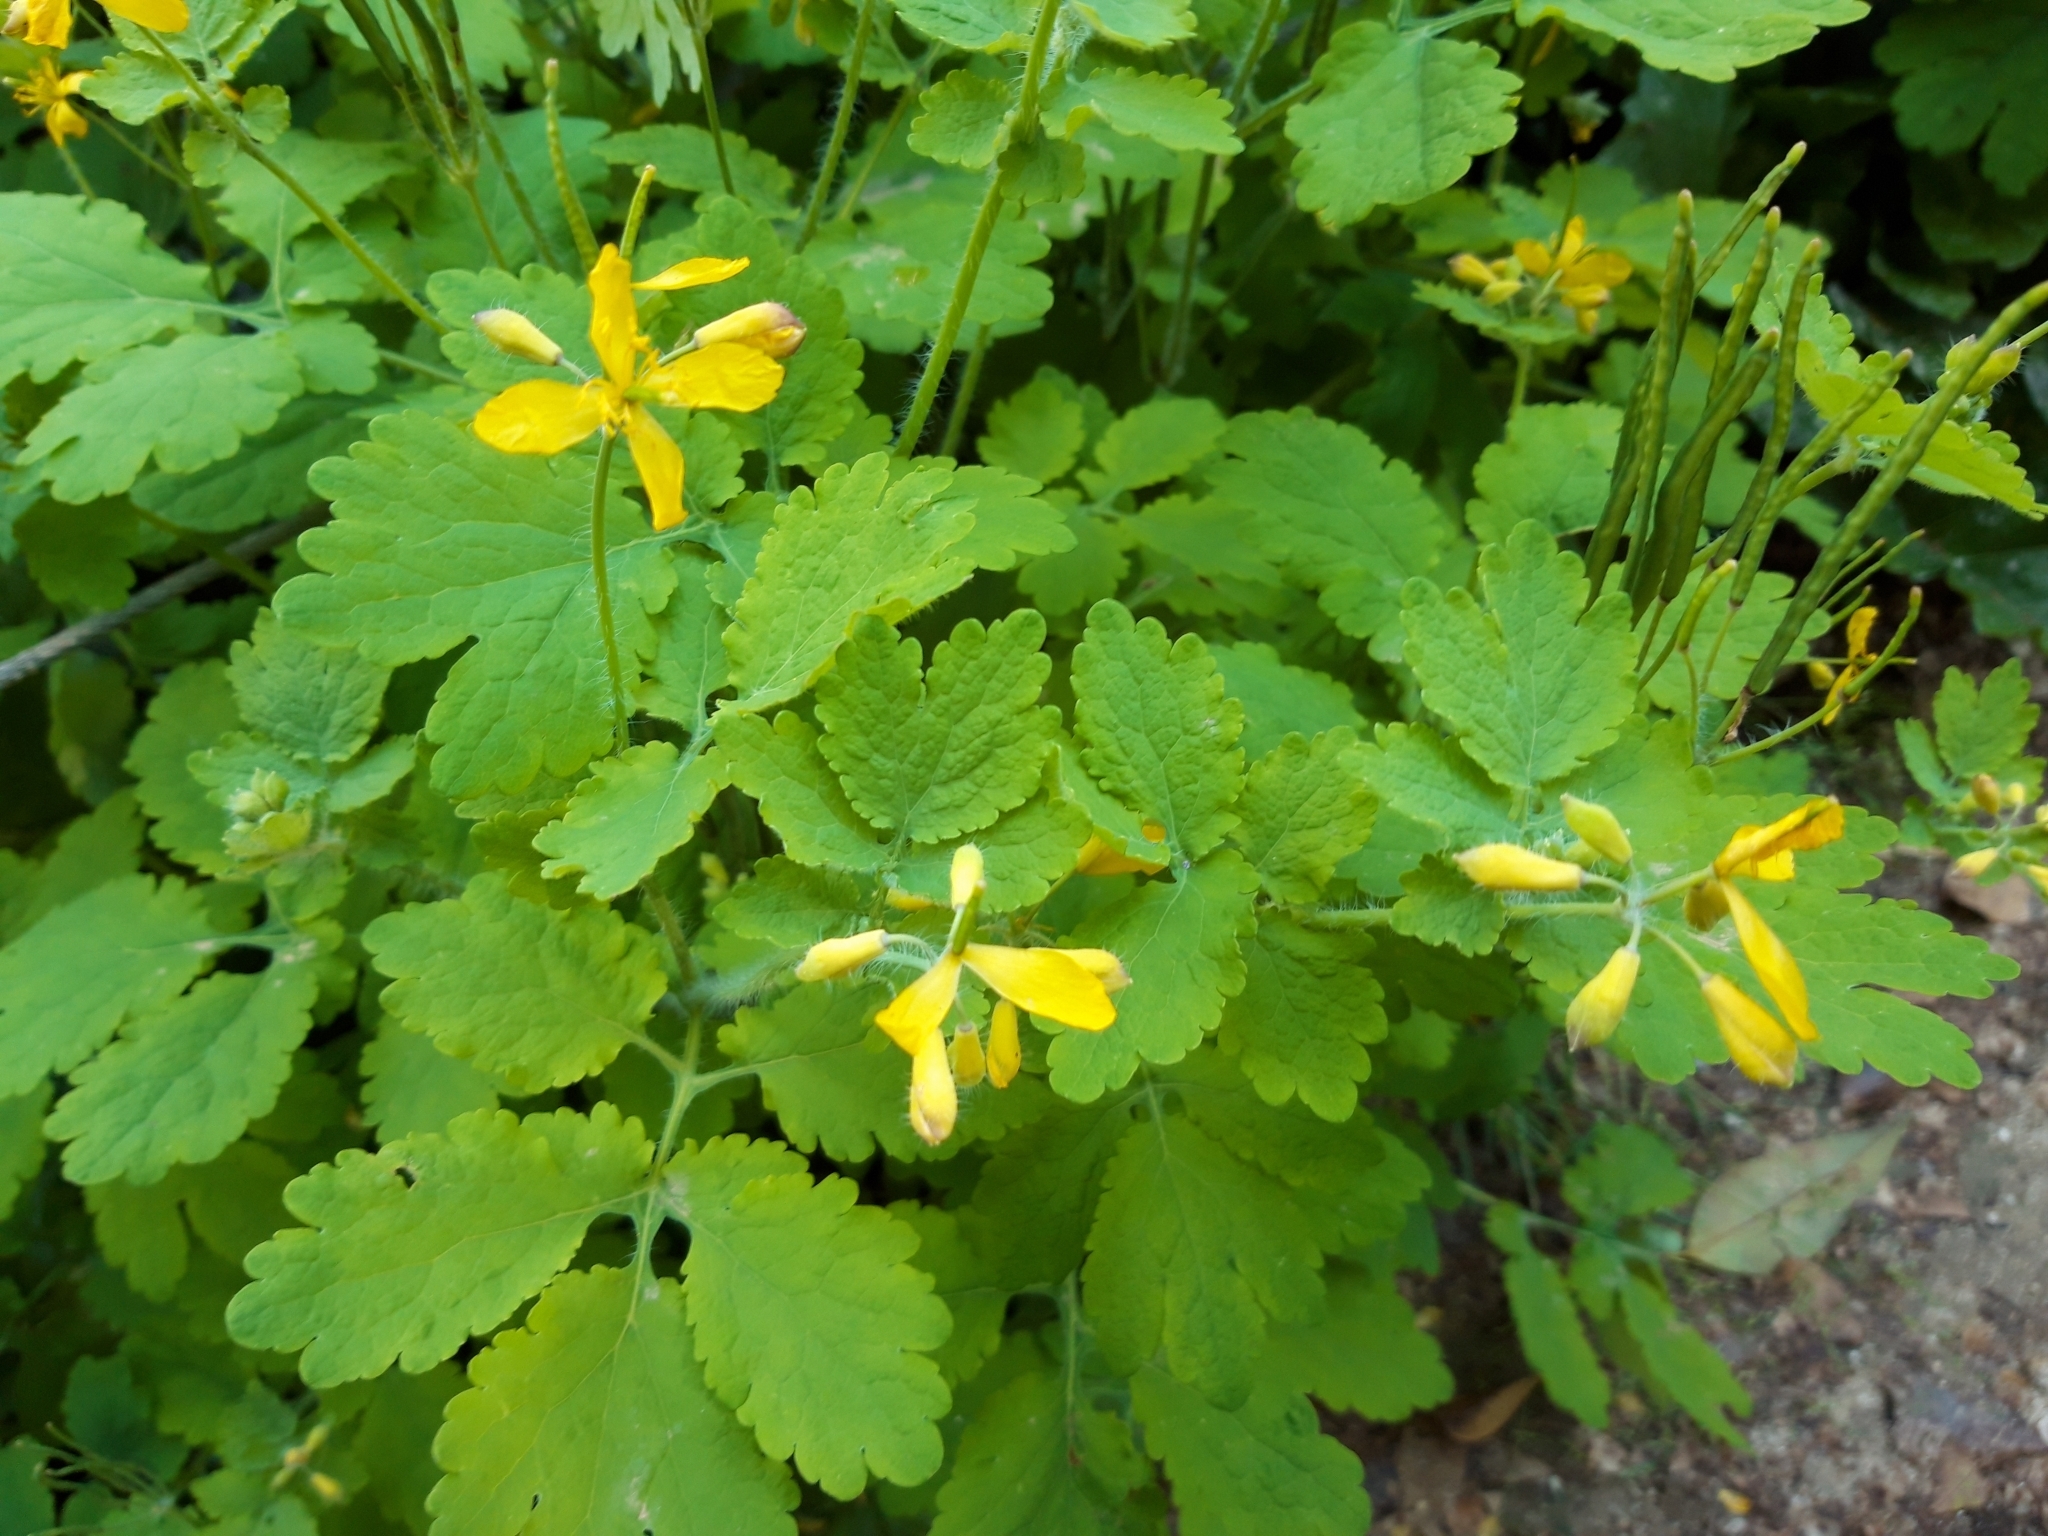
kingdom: Plantae
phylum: Tracheophyta
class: Magnoliopsida
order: Ranunculales
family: Papaveraceae
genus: Chelidonium
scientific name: Chelidonium majus
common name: Greater celandine
